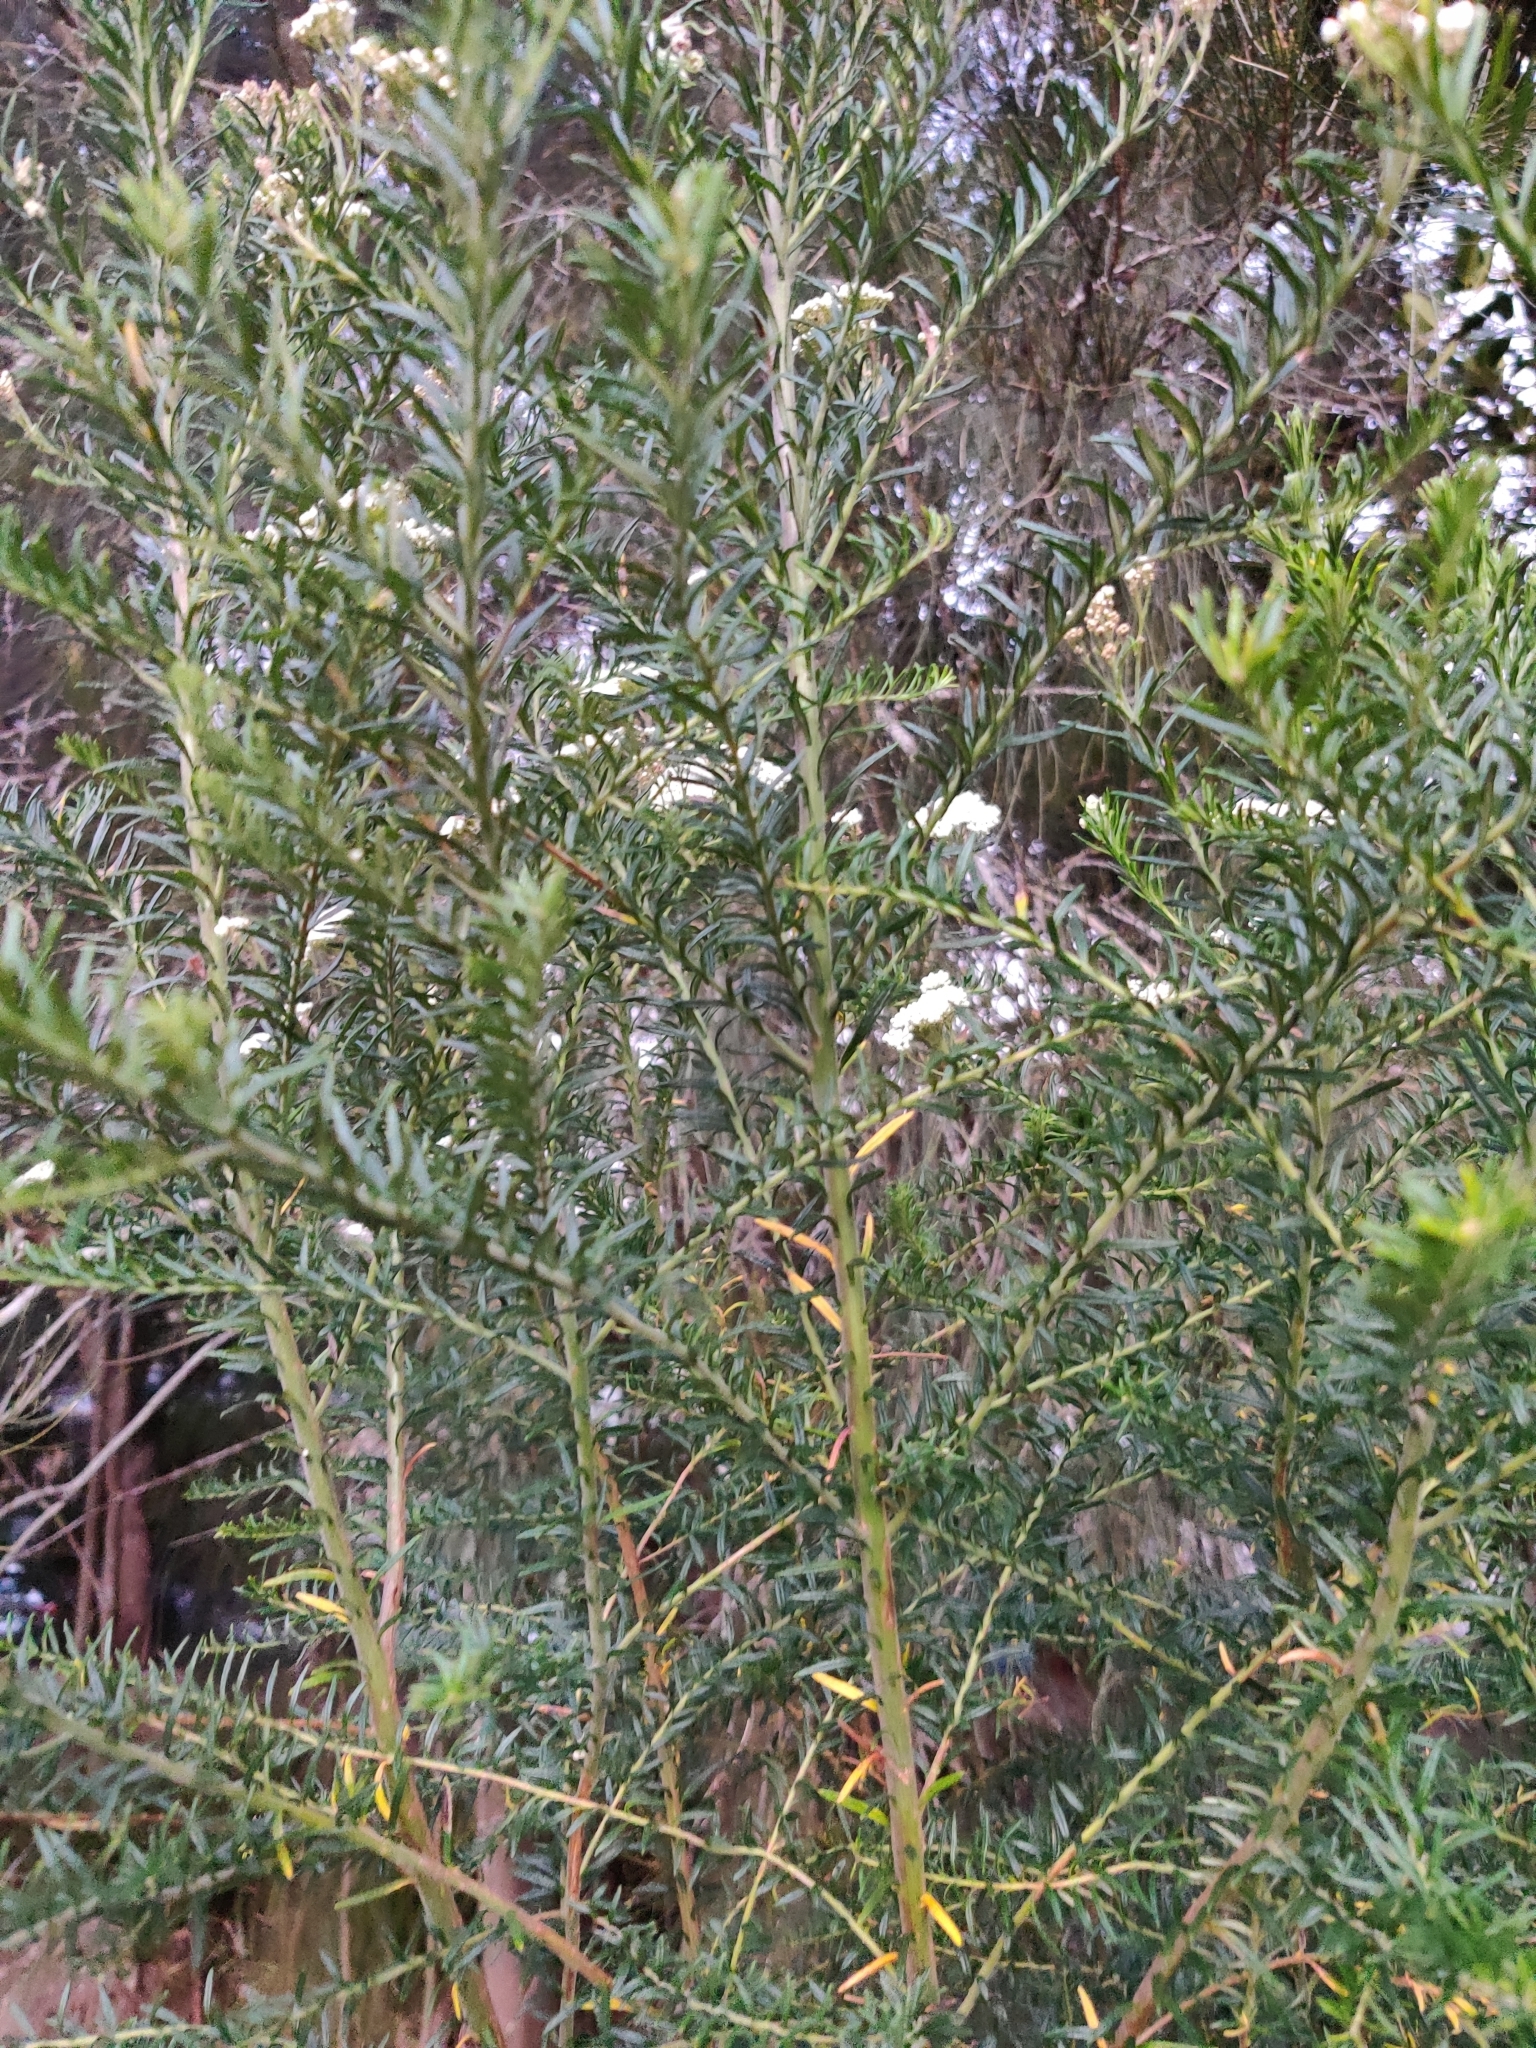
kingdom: Plantae
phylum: Tracheophyta
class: Magnoliopsida
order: Asterales
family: Asteraceae
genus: Ozothamnus
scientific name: Ozothamnus diosmifolius
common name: White-dogwood
